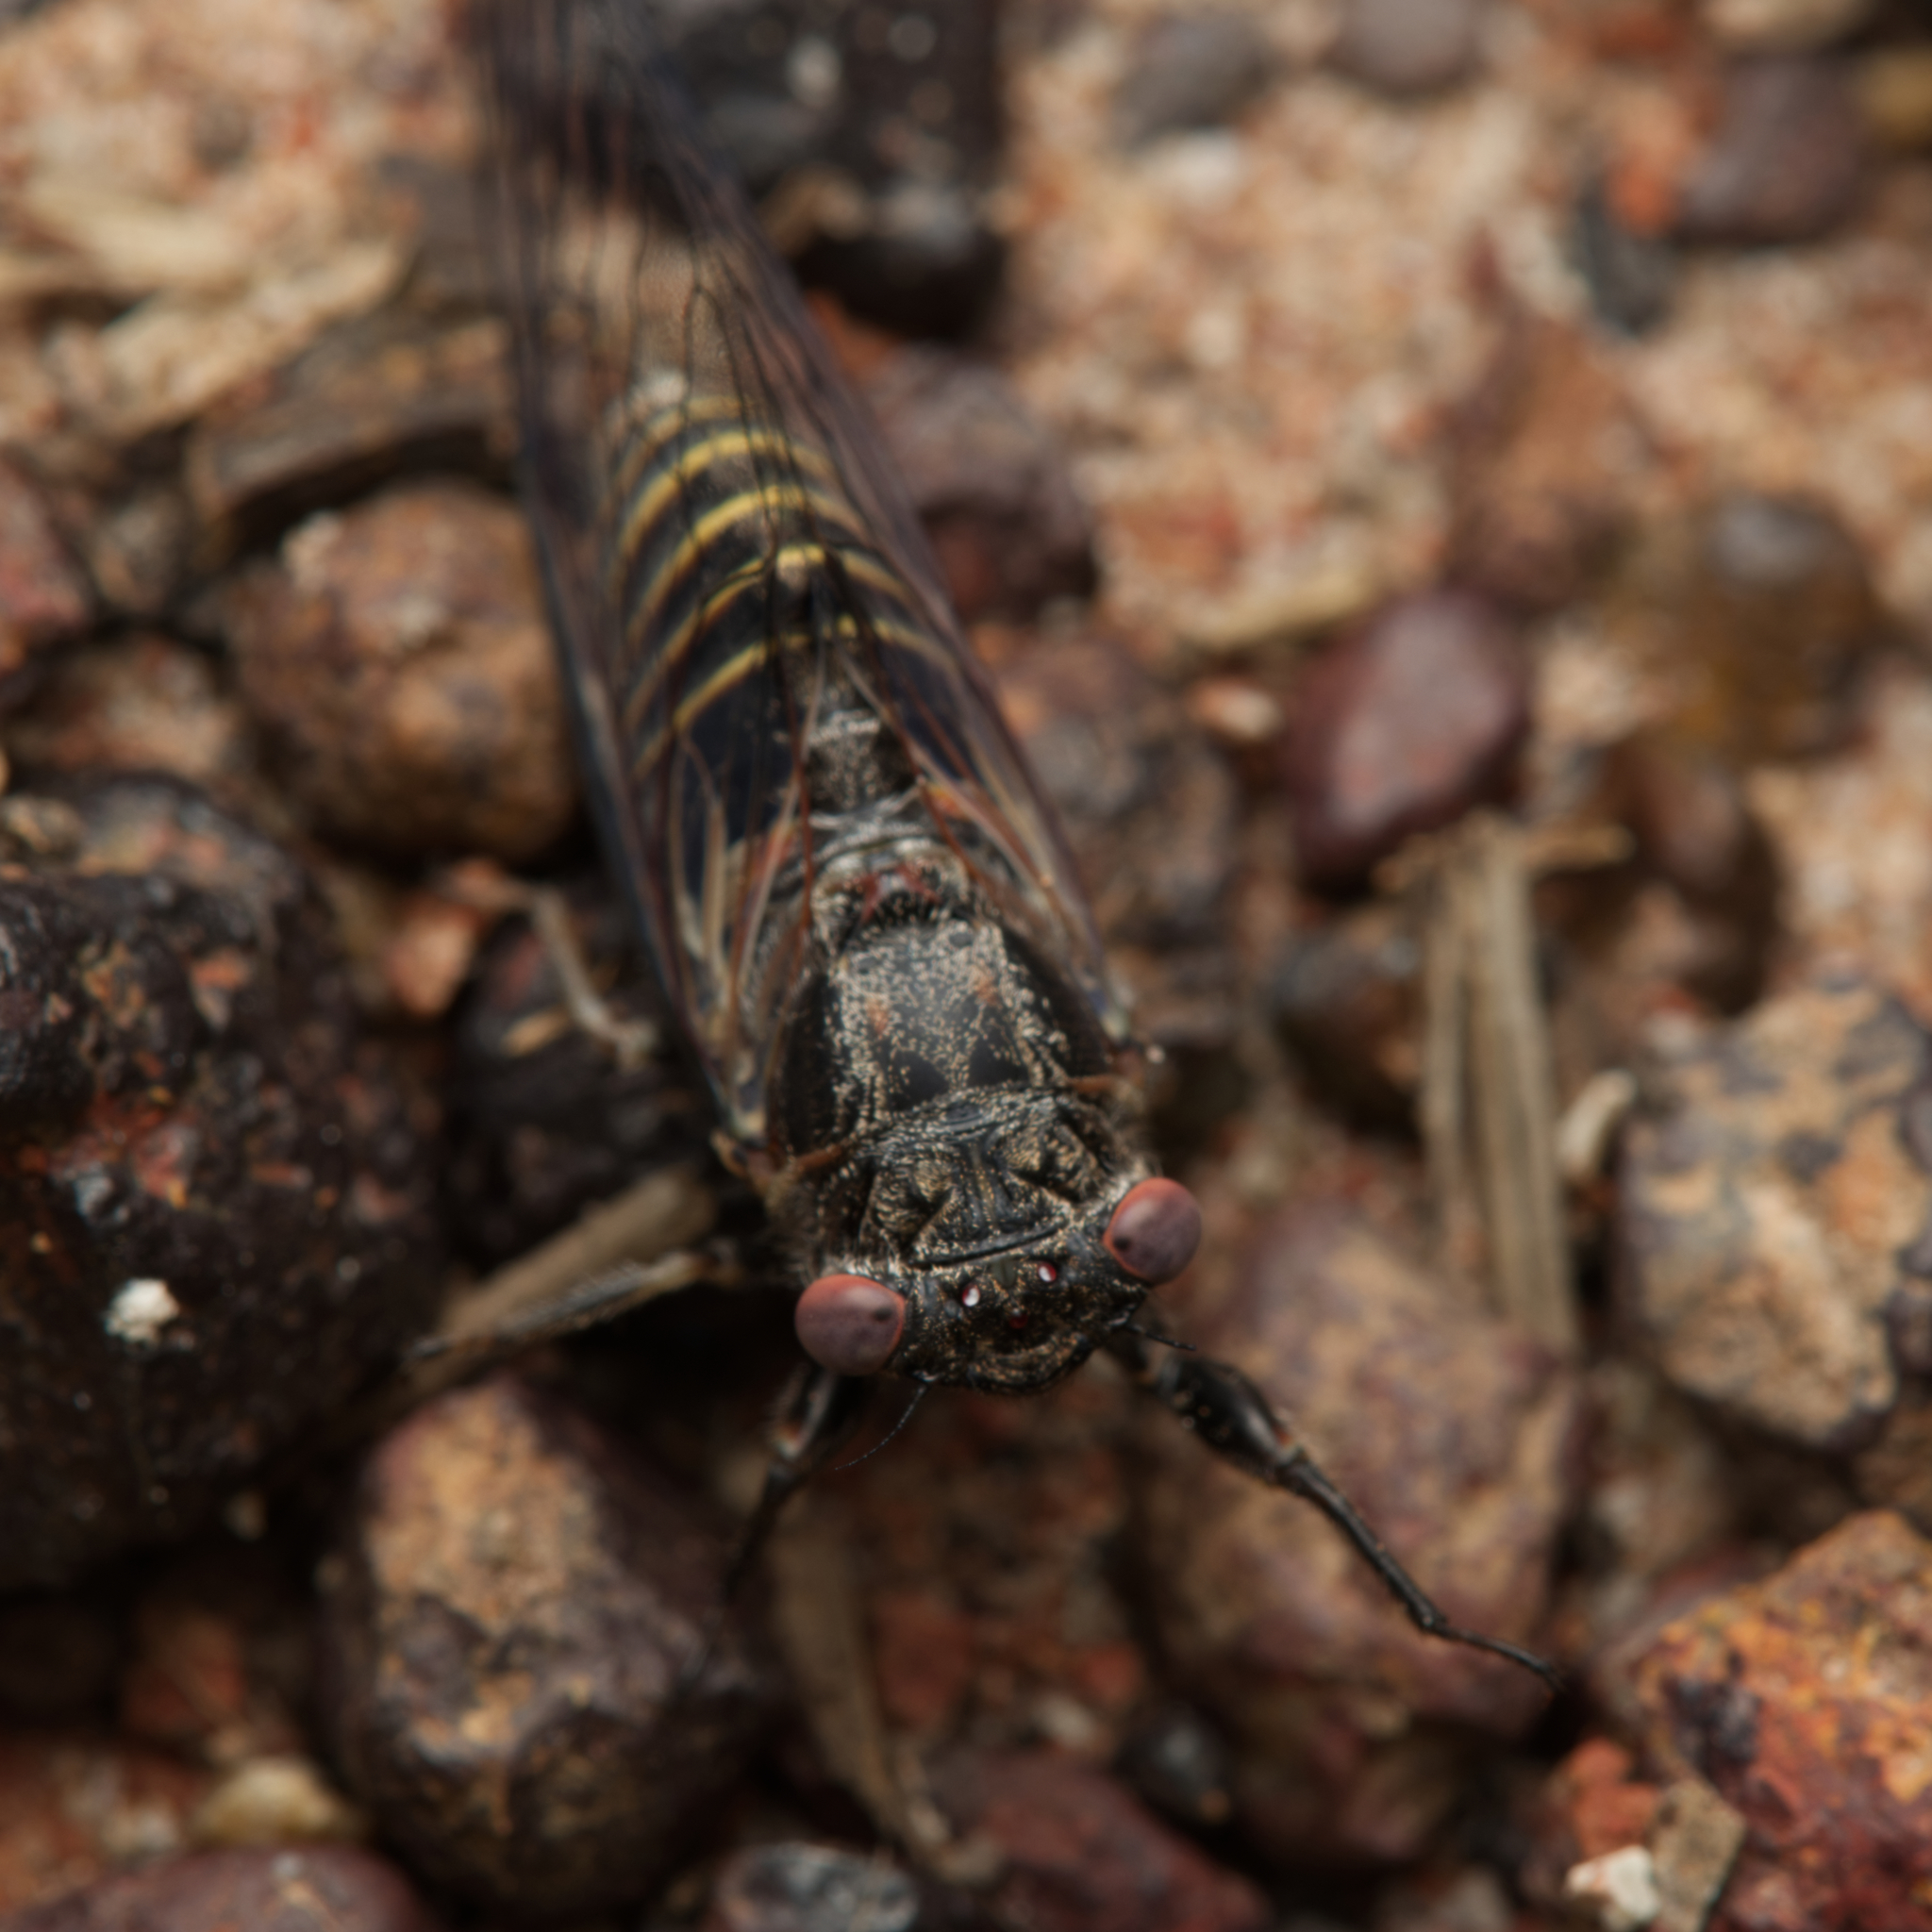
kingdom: Animalia
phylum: Arthropoda
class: Insecta
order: Hemiptera
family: Cicadidae
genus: Popplepsalta
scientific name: Popplepsalta annulata
